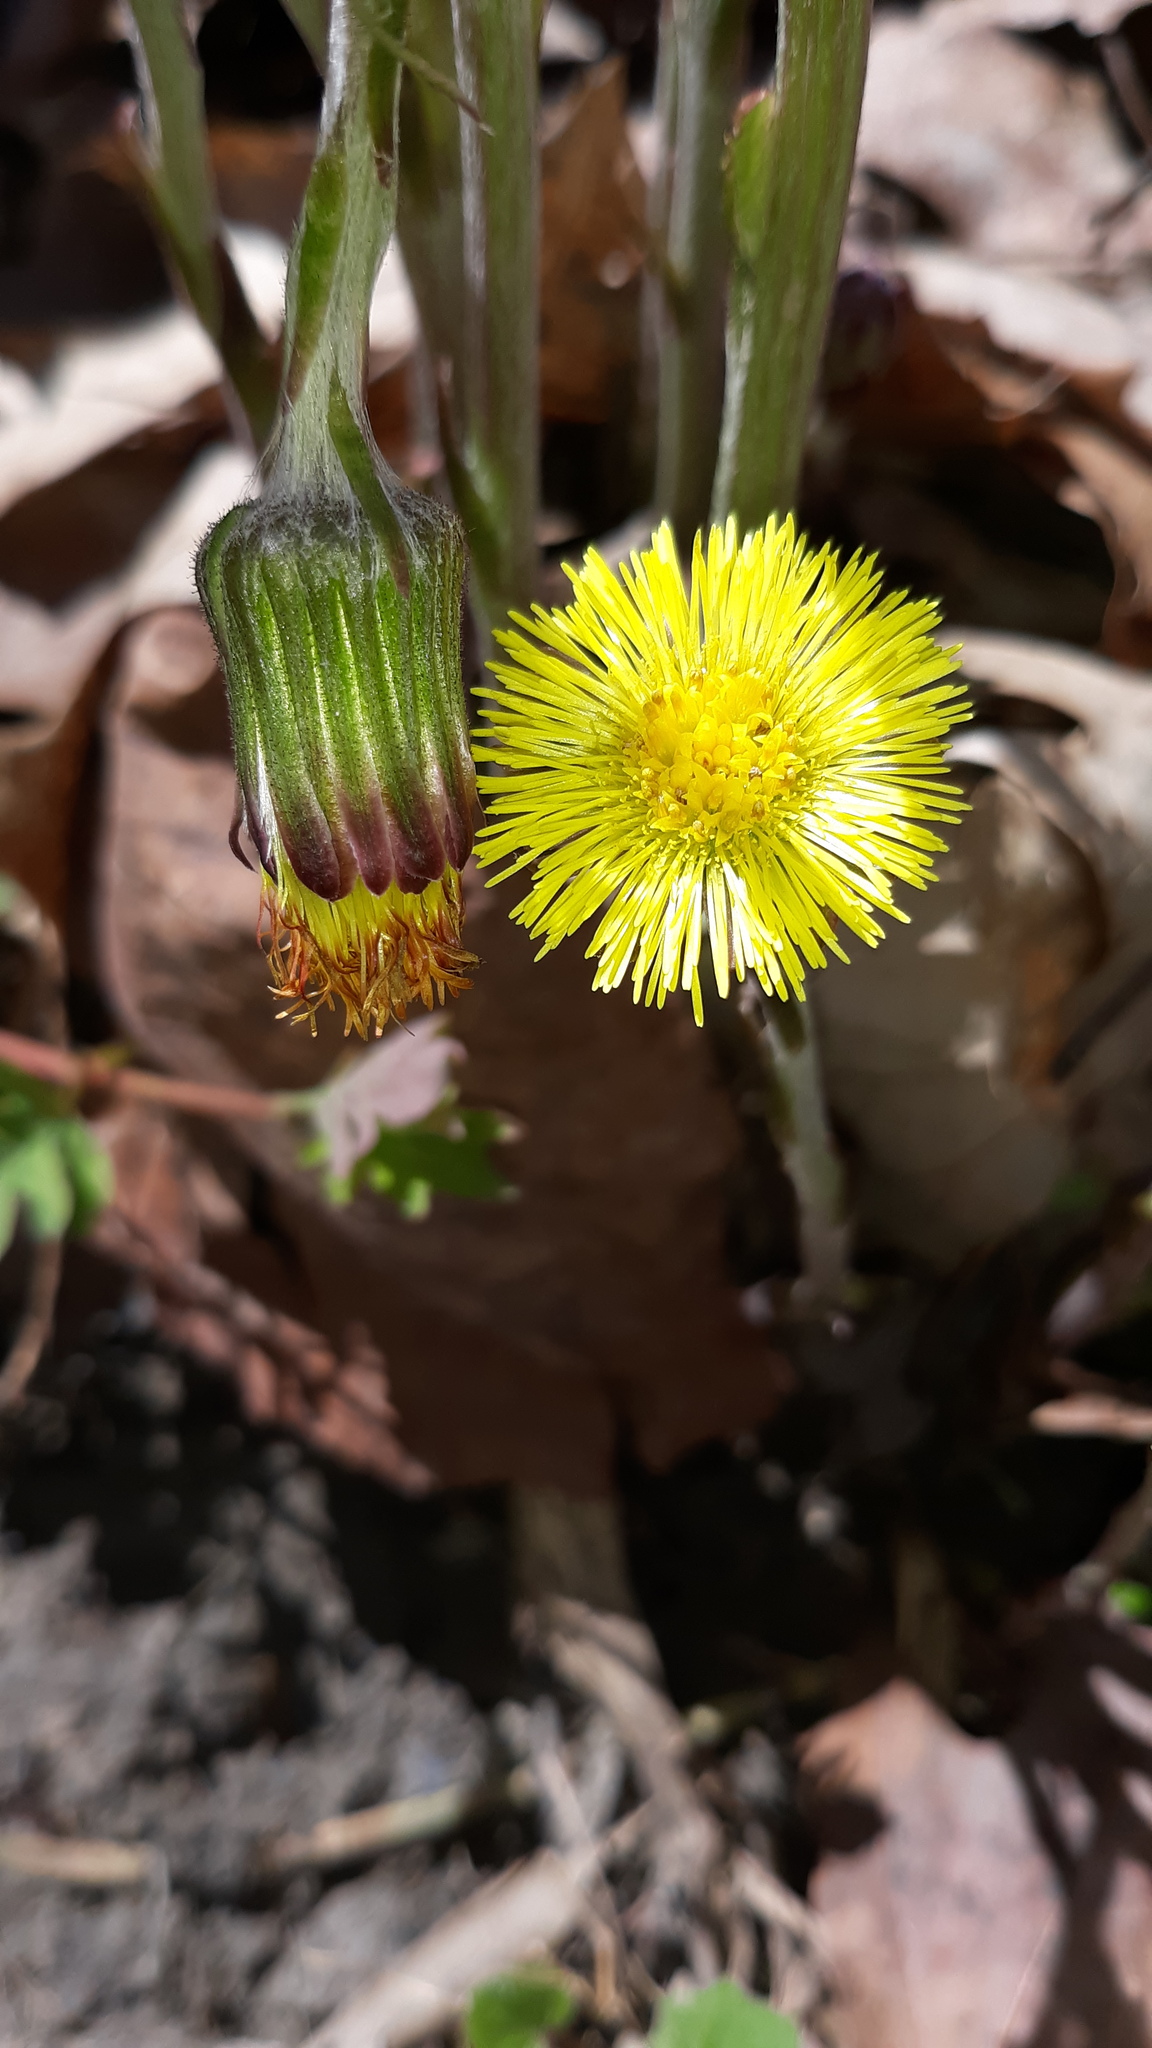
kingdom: Plantae
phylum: Tracheophyta
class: Magnoliopsida
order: Asterales
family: Asteraceae
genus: Tussilago
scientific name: Tussilago farfara
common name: Coltsfoot
